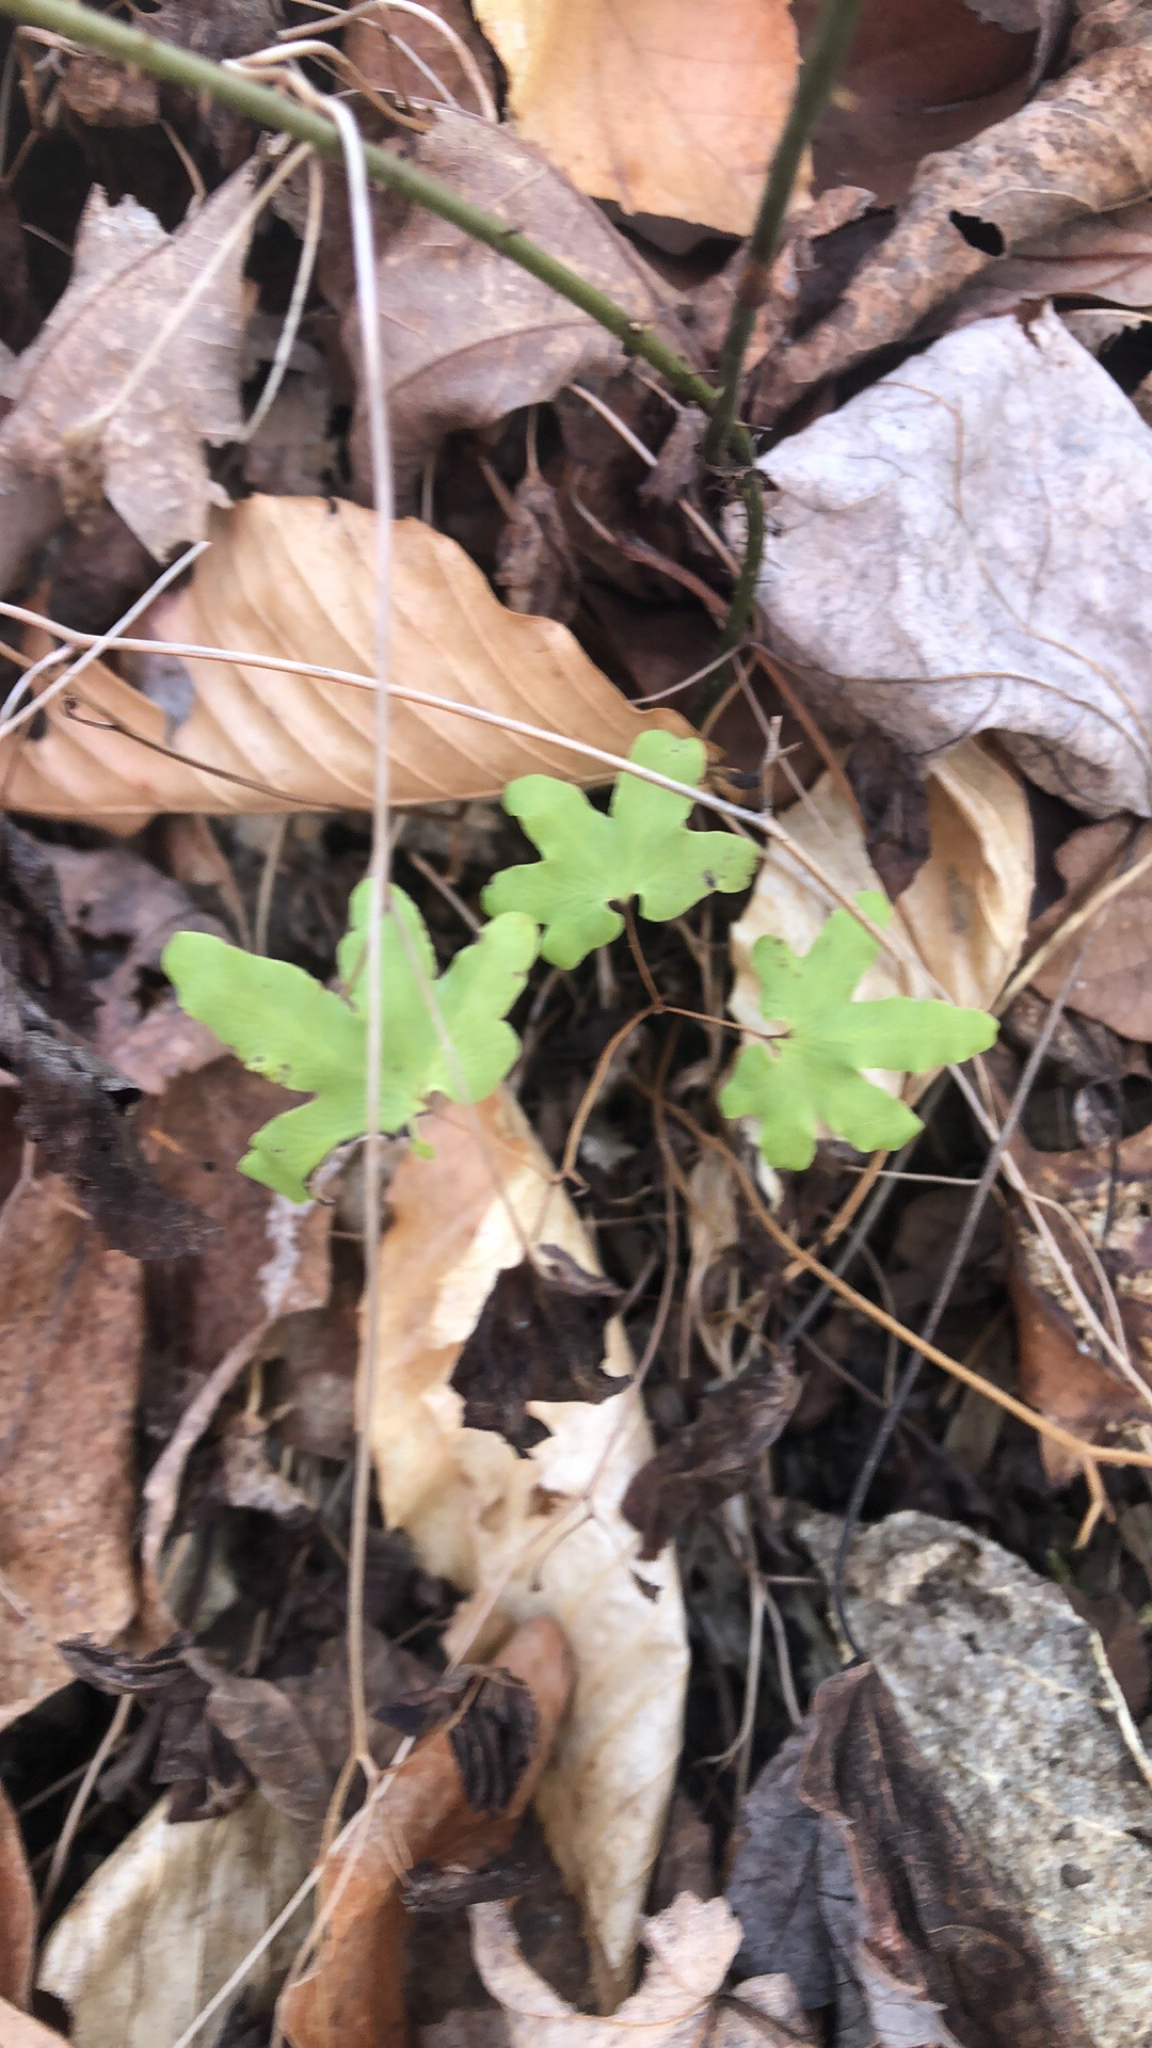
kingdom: Plantae
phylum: Tracheophyta
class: Polypodiopsida
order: Schizaeales
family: Lygodiaceae
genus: Lygodium
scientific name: Lygodium palmatum
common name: American climbing fern
